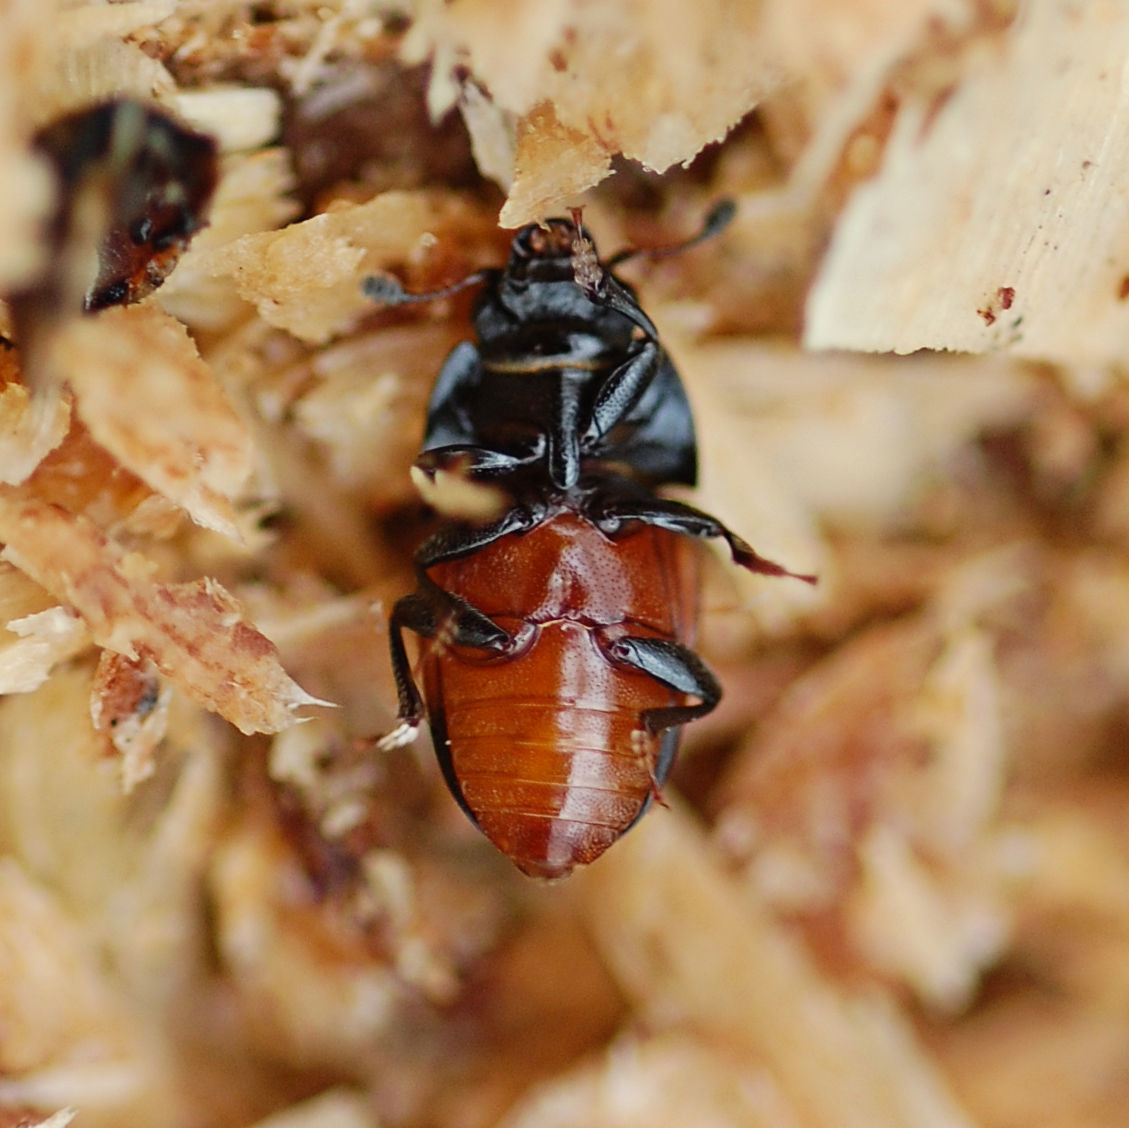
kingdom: Animalia
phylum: Arthropoda
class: Insecta
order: Coleoptera
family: Nitidulidae
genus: Glischrochilus
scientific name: Glischrochilus sanguinolentus
